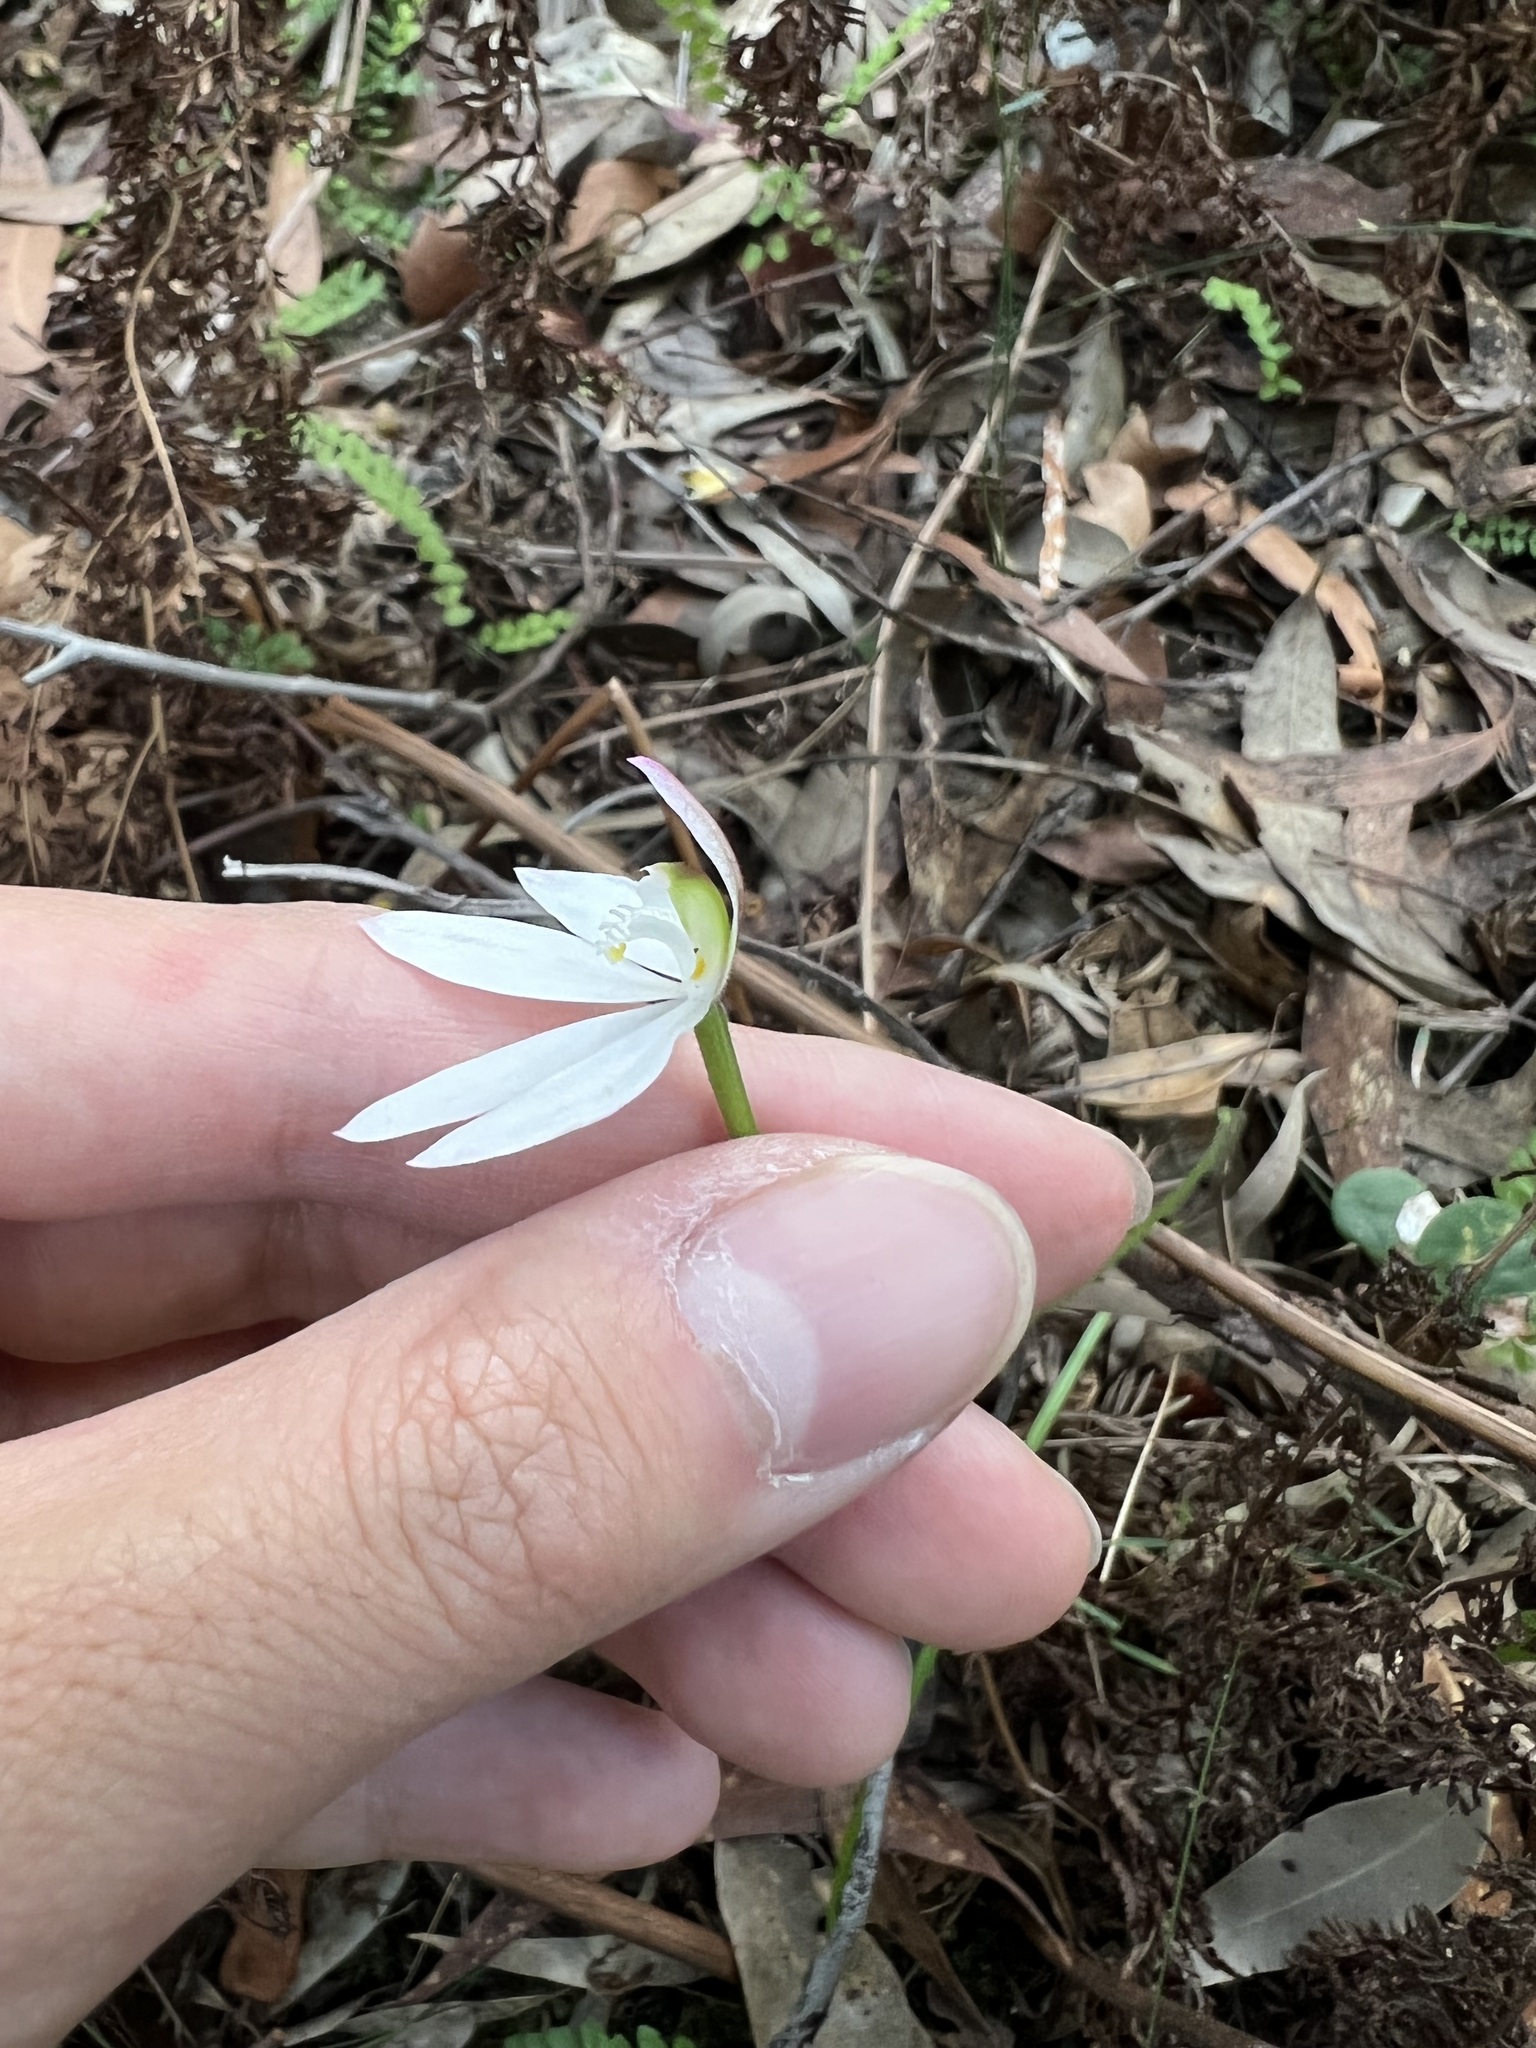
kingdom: Plantae
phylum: Tracheophyta
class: Liliopsida
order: Asparagales
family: Orchidaceae
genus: Caladenia
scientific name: Caladenia catenata
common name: White caladenia
